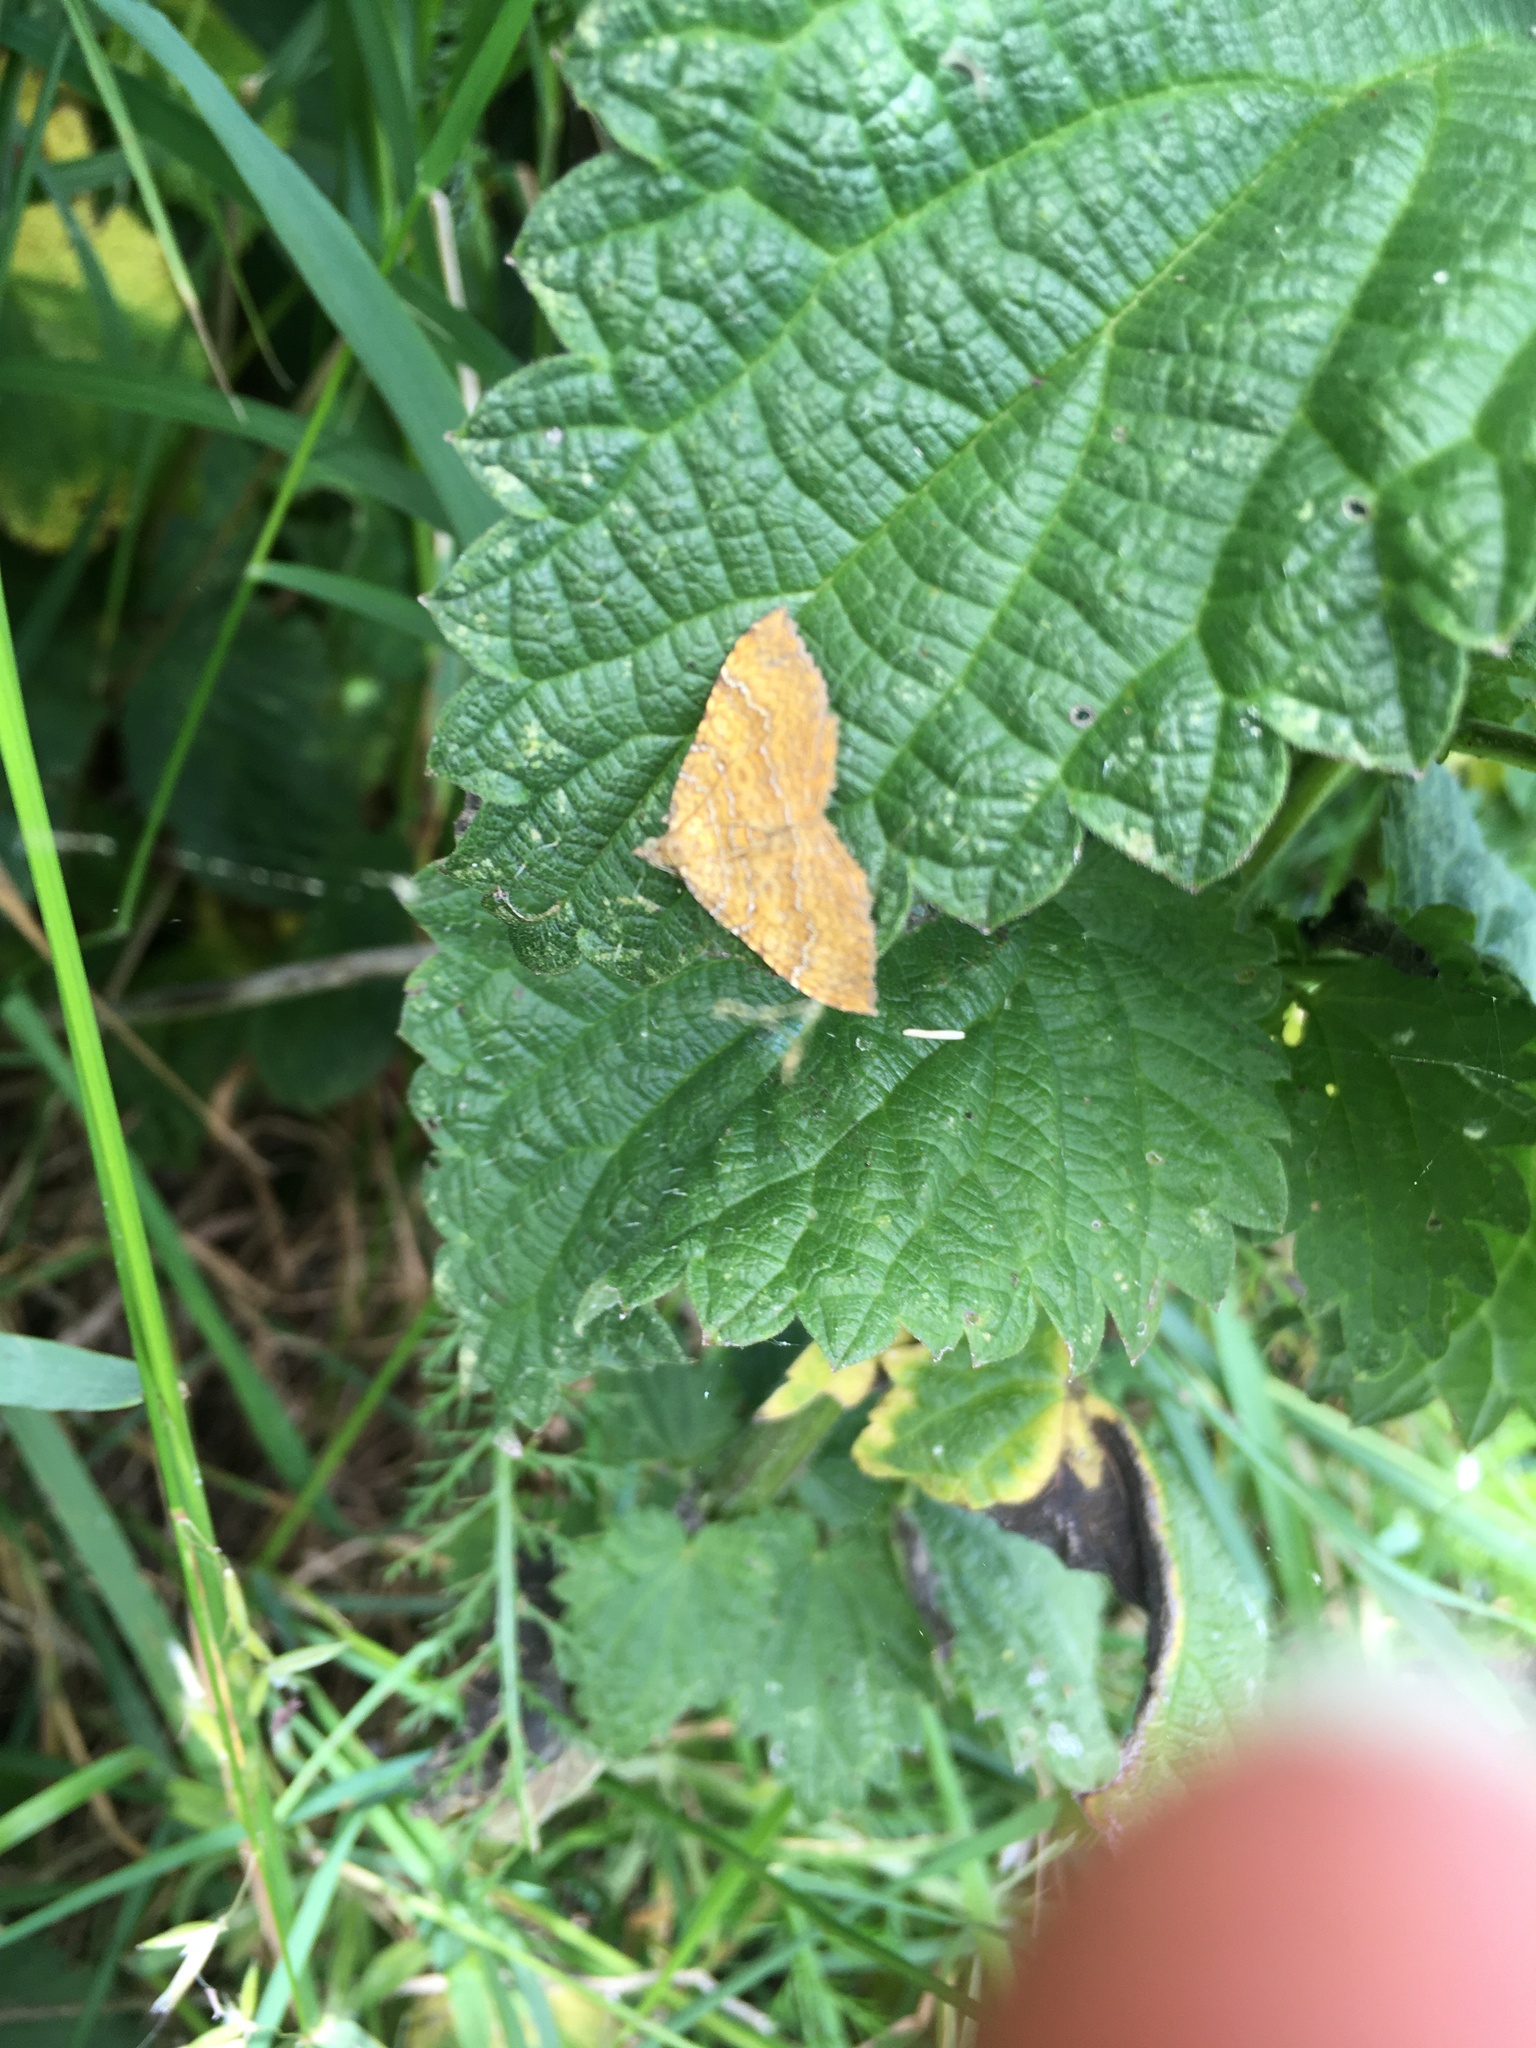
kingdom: Animalia
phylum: Arthropoda
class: Insecta
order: Lepidoptera
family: Geometridae
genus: Camptogramma
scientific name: Camptogramma bilineata
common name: Yellow shell
